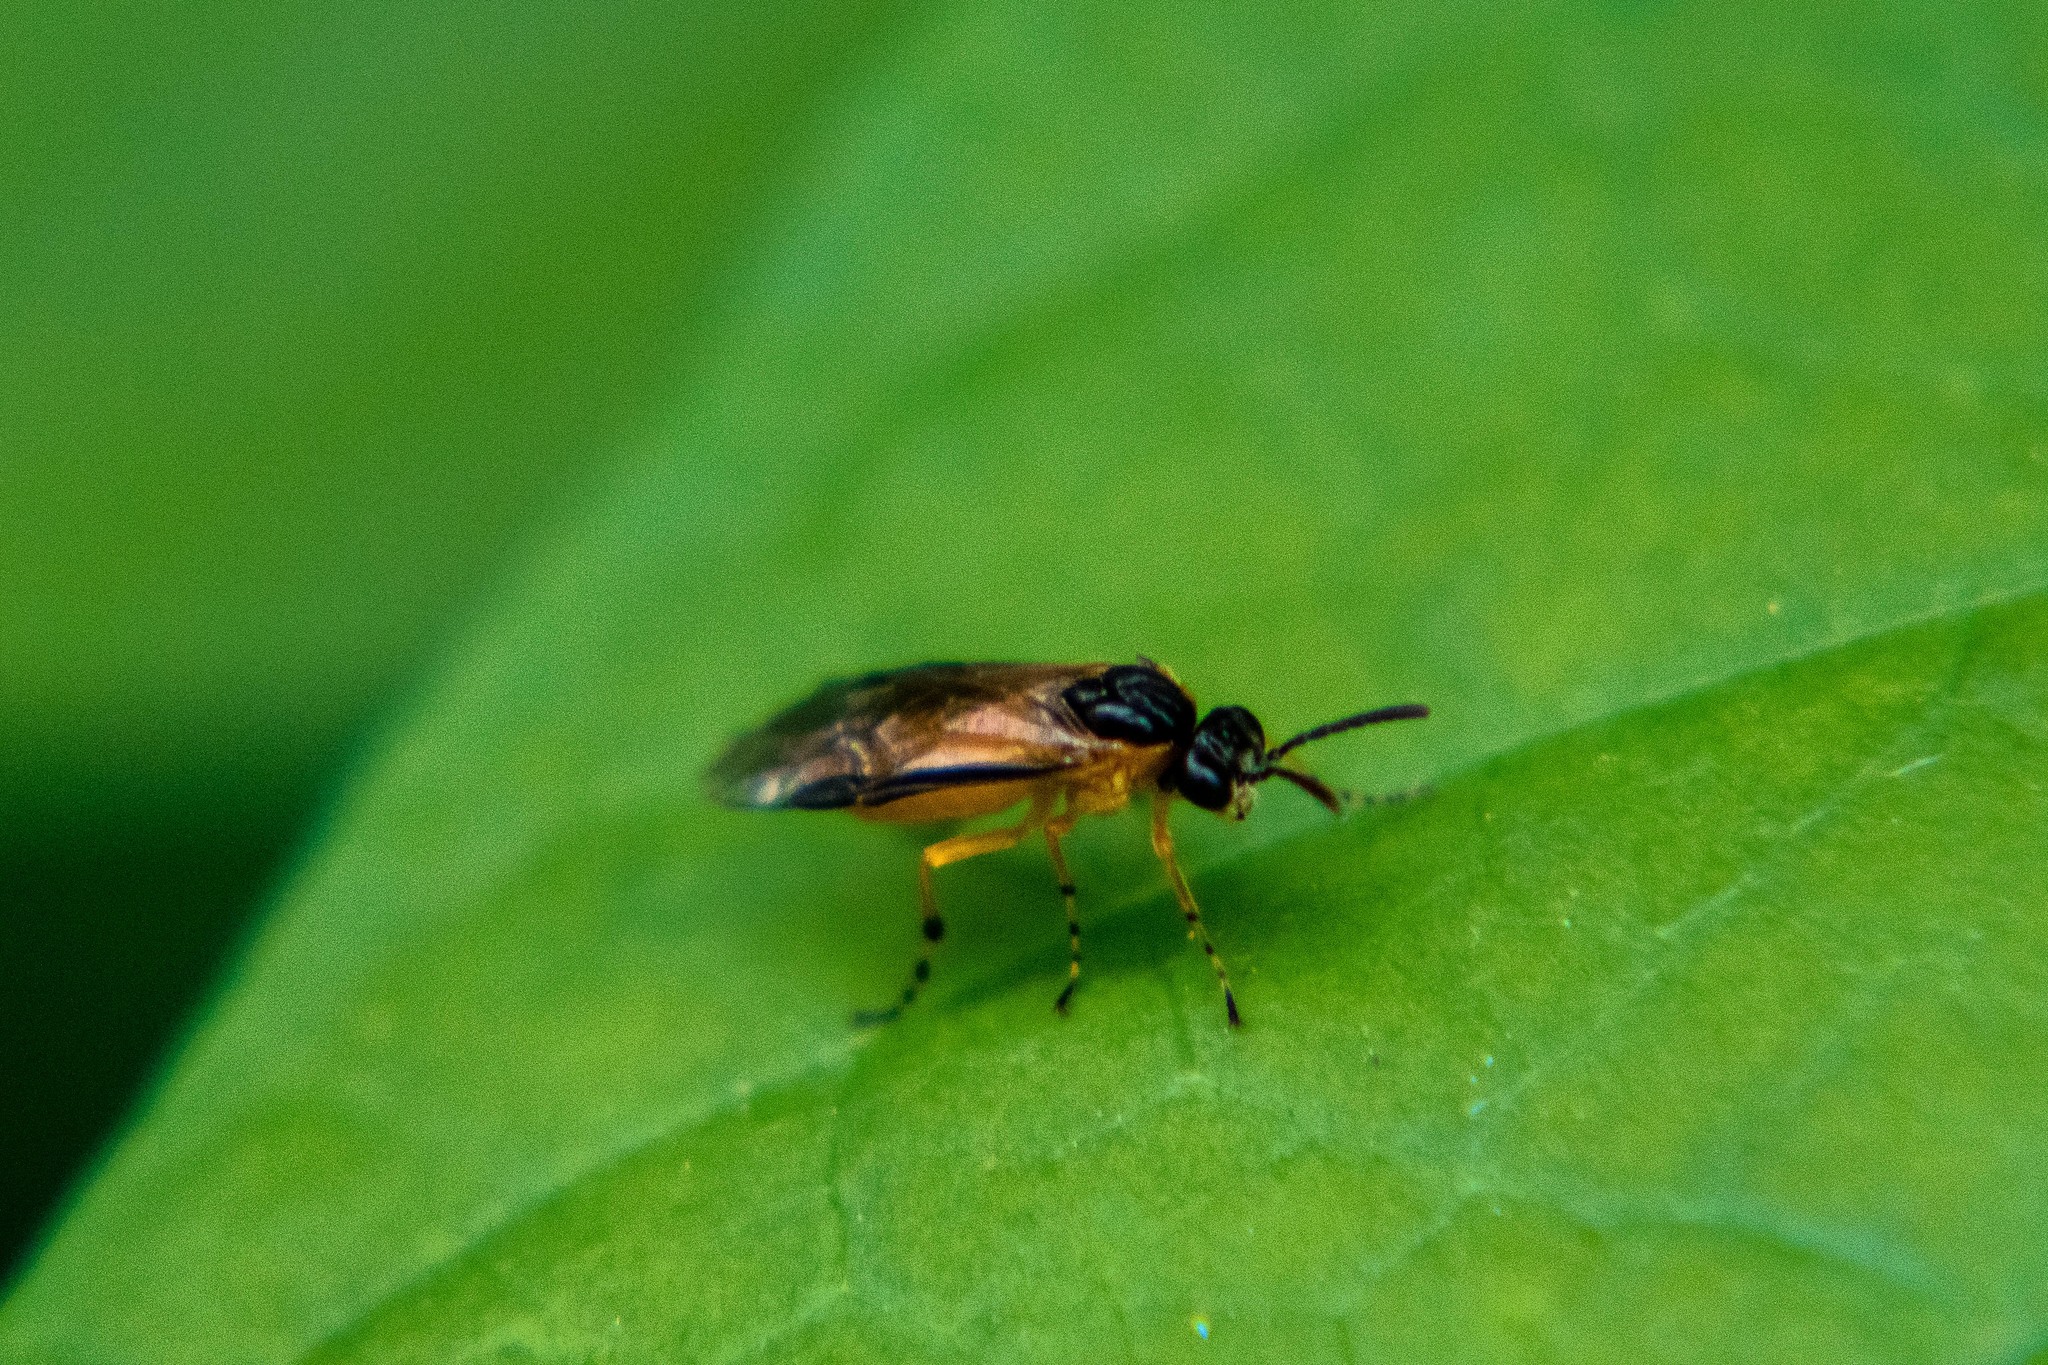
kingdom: Animalia
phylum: Arthropoda
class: Insecta
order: Hymenoptera
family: Tenthredinidae
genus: Athalia
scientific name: Athalia cordata
